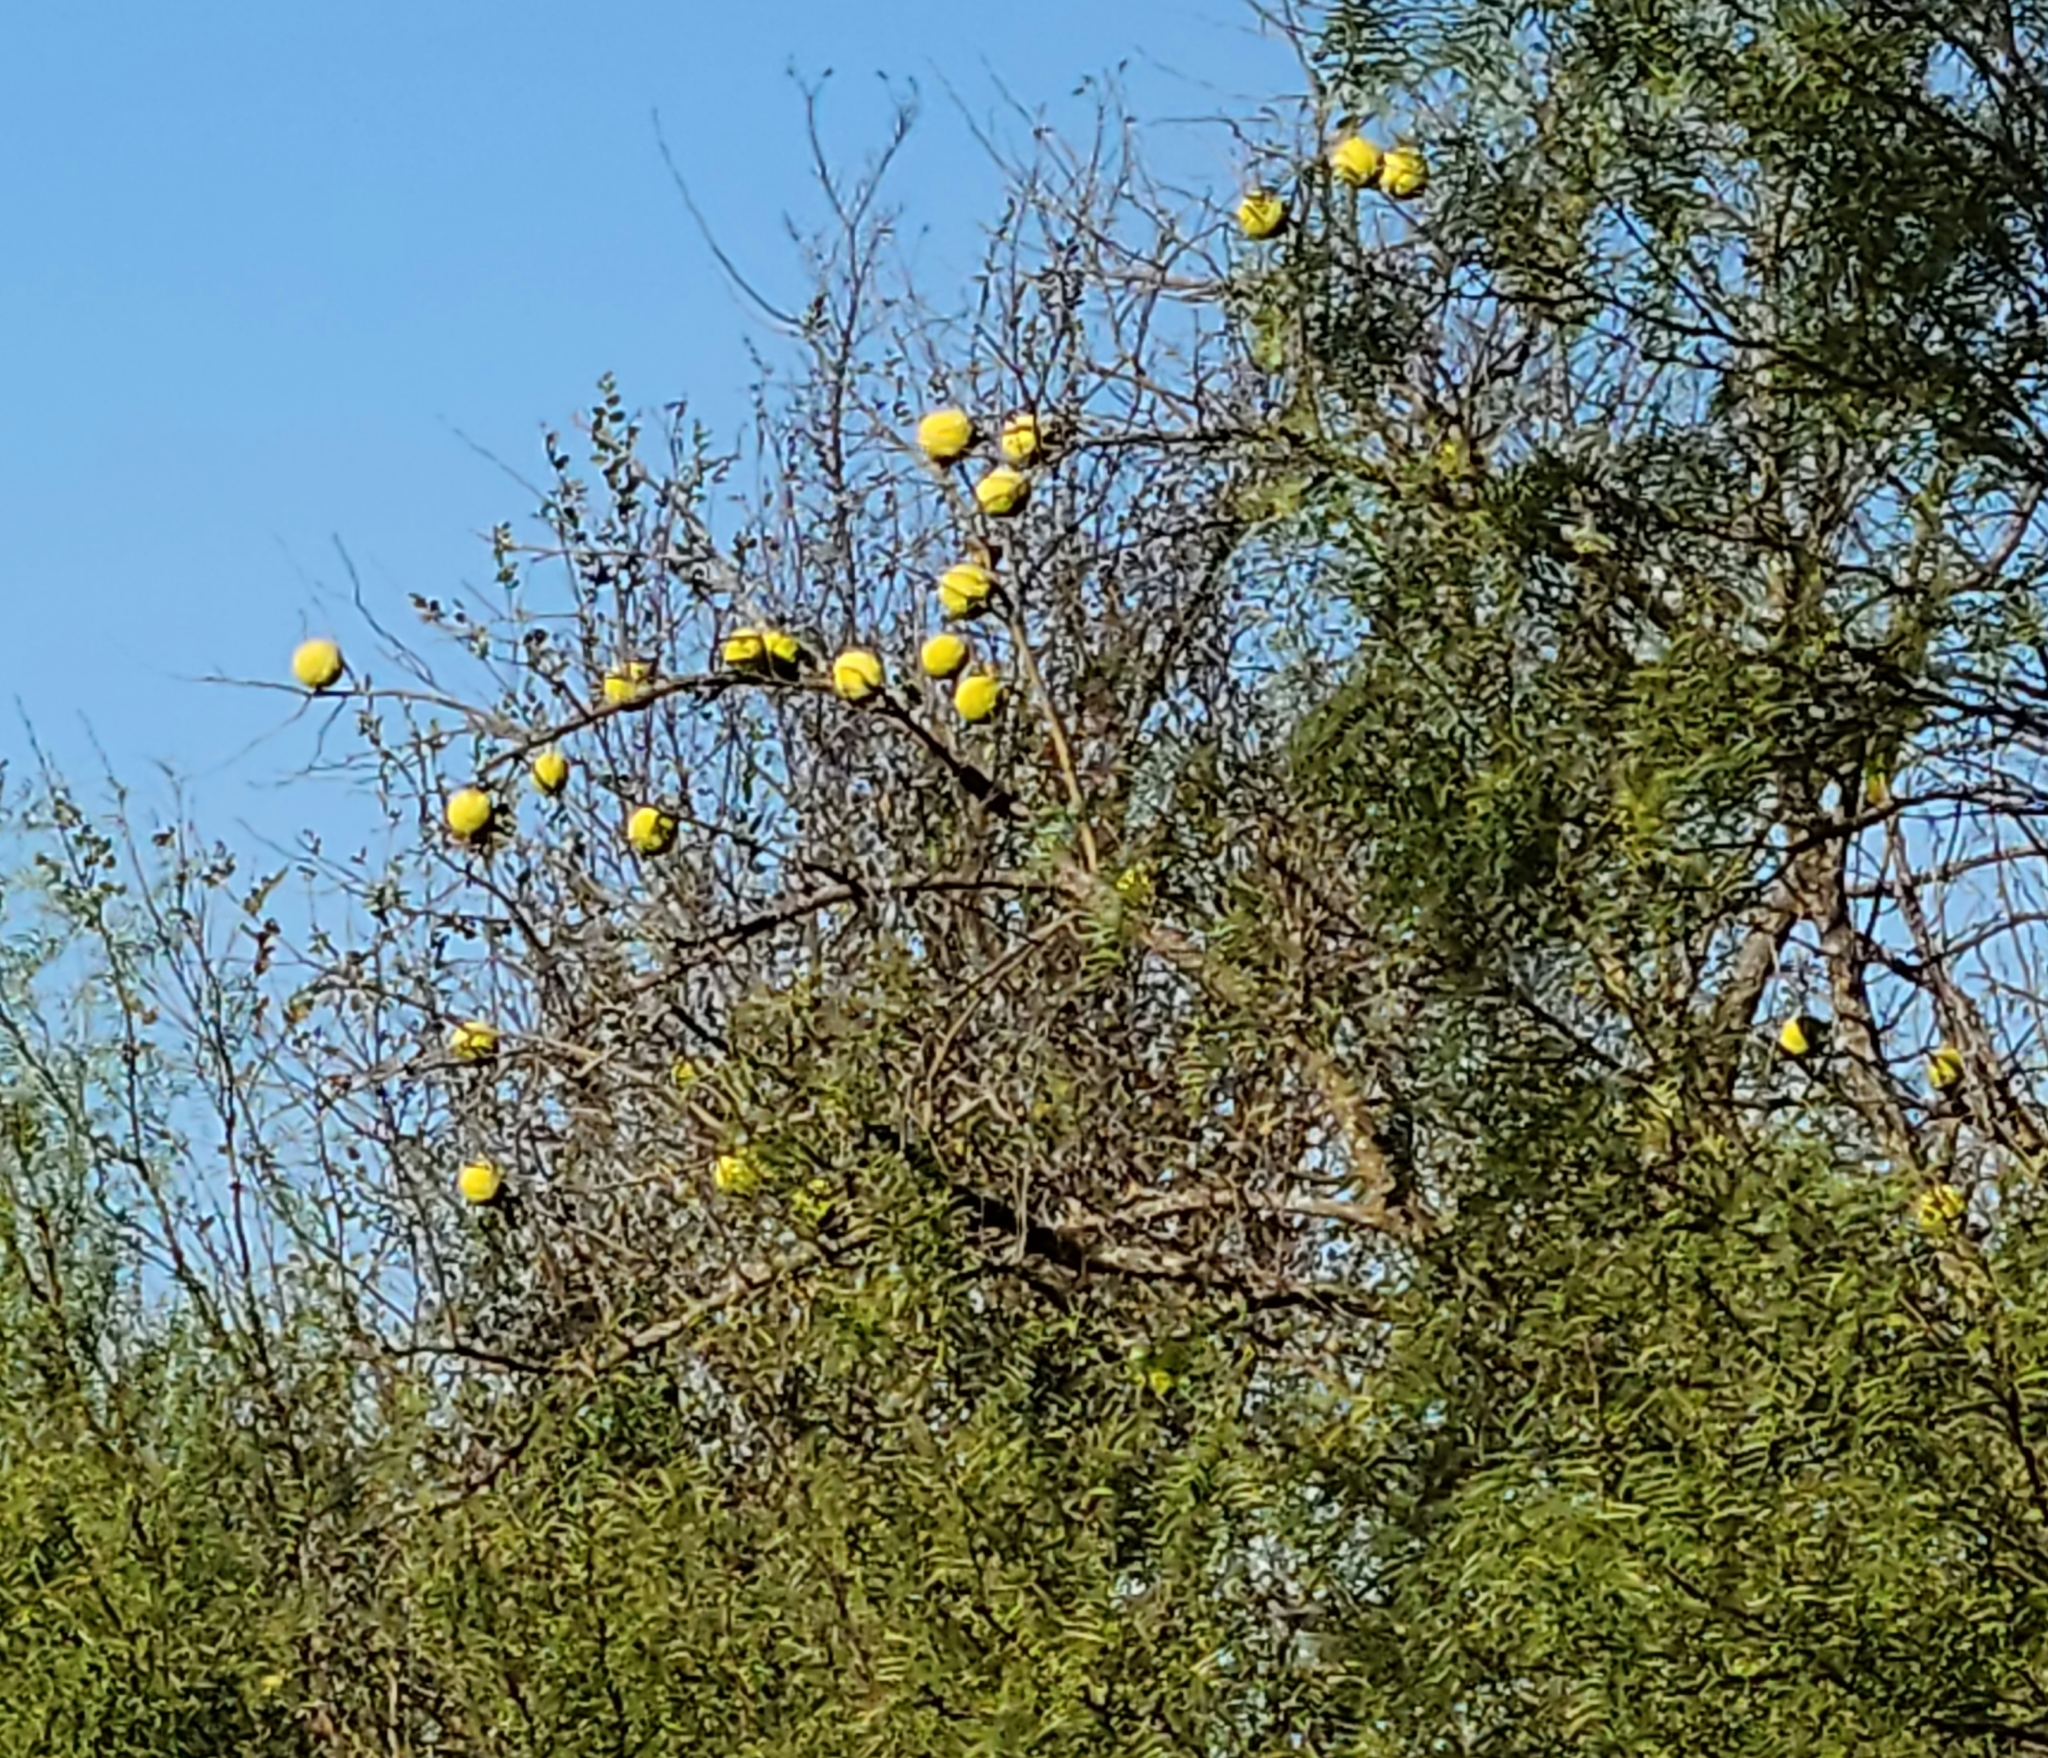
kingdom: Plantae
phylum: Tracheophyta
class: Magnoliopsida
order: Rosales
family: Moraceae
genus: Maclura
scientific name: Maclura pomifera
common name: Osage-orange
